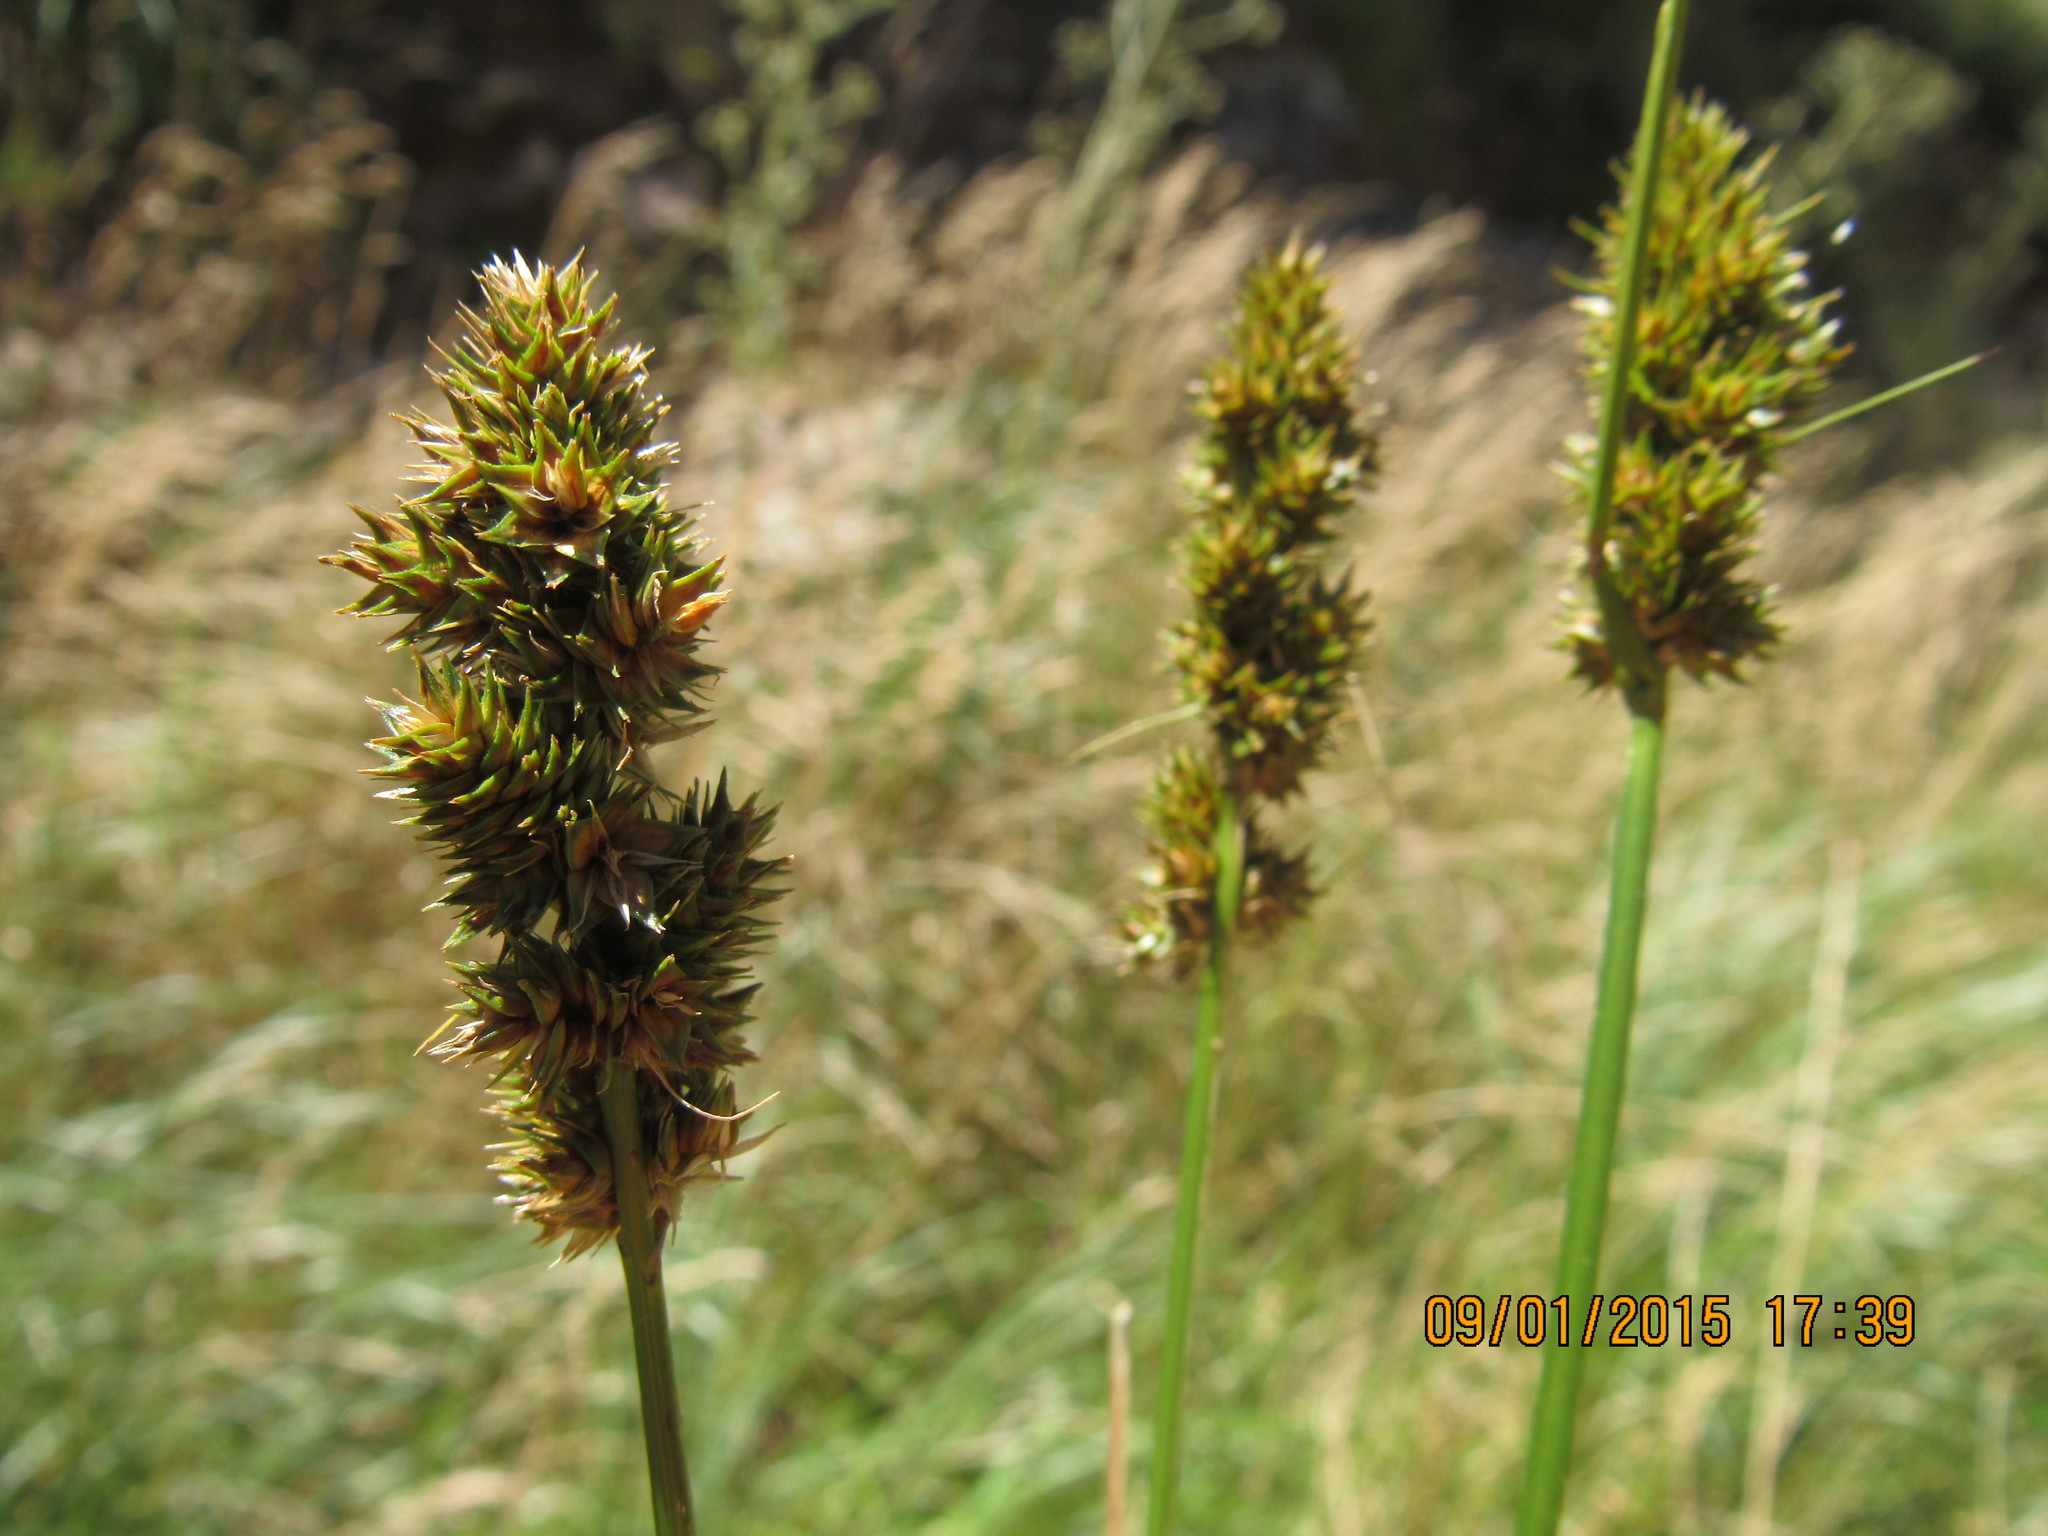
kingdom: Plantae
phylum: Tracheophyta
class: Liliopsida
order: Poales
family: Cyperaceae
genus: Carex
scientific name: Carex brongniartii
